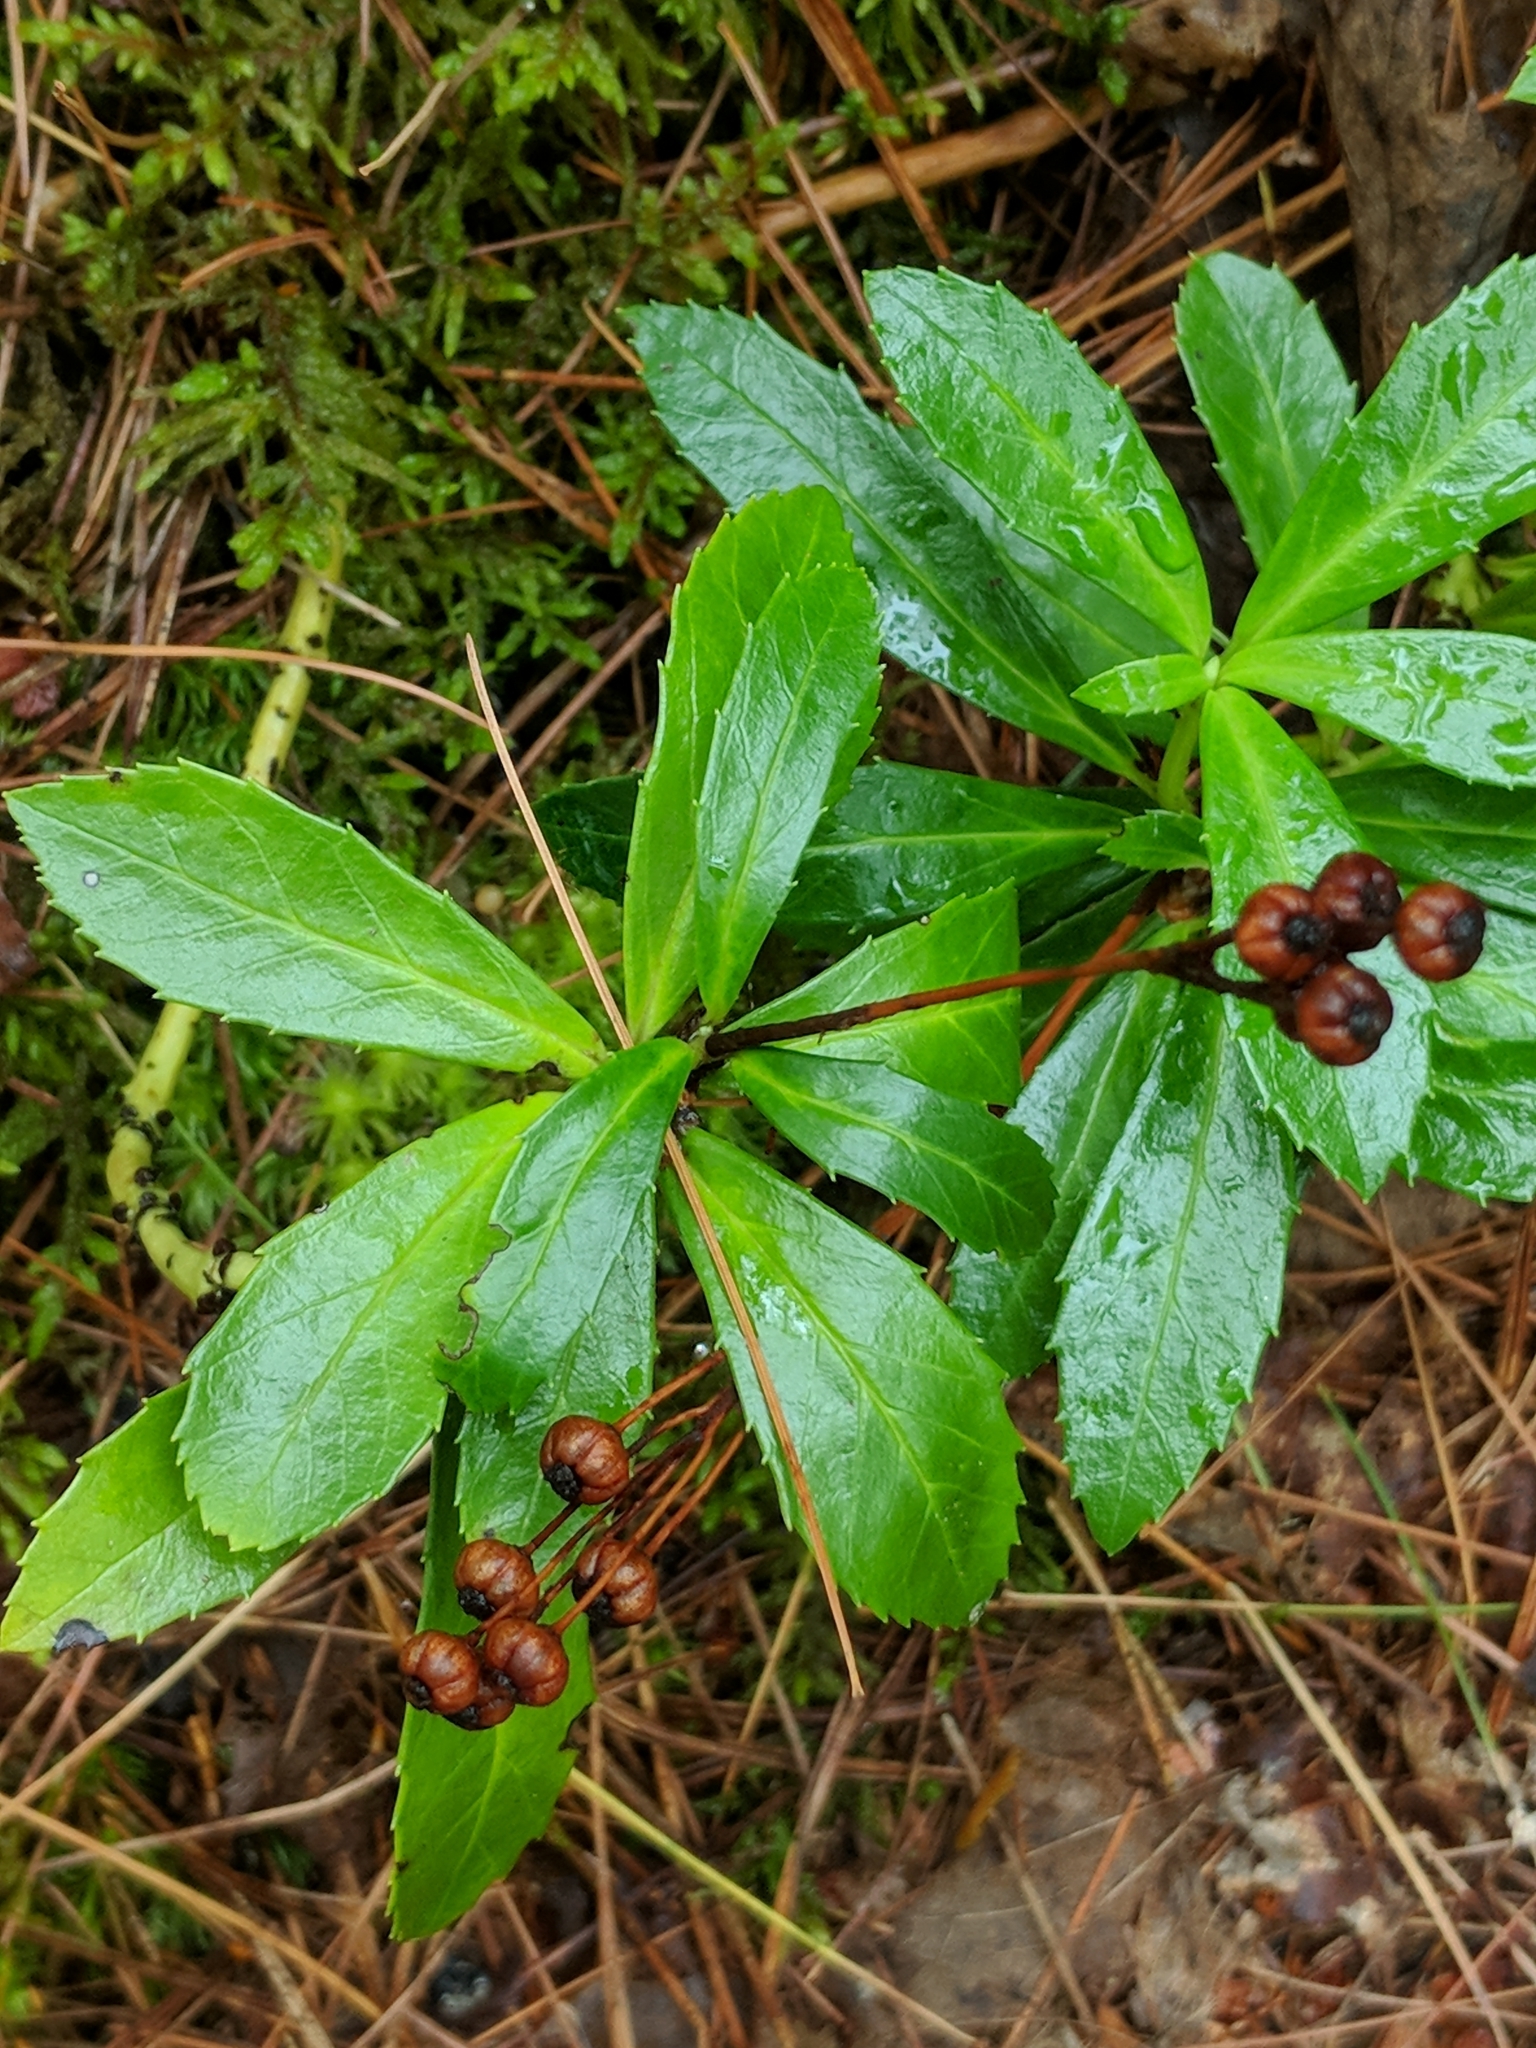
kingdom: Plantae
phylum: Tracheophyta
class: Magnoliopsida
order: Ericales
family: Ericaceae
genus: Chimaphila
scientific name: Chimaphila umbellata
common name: Pipsissewa
